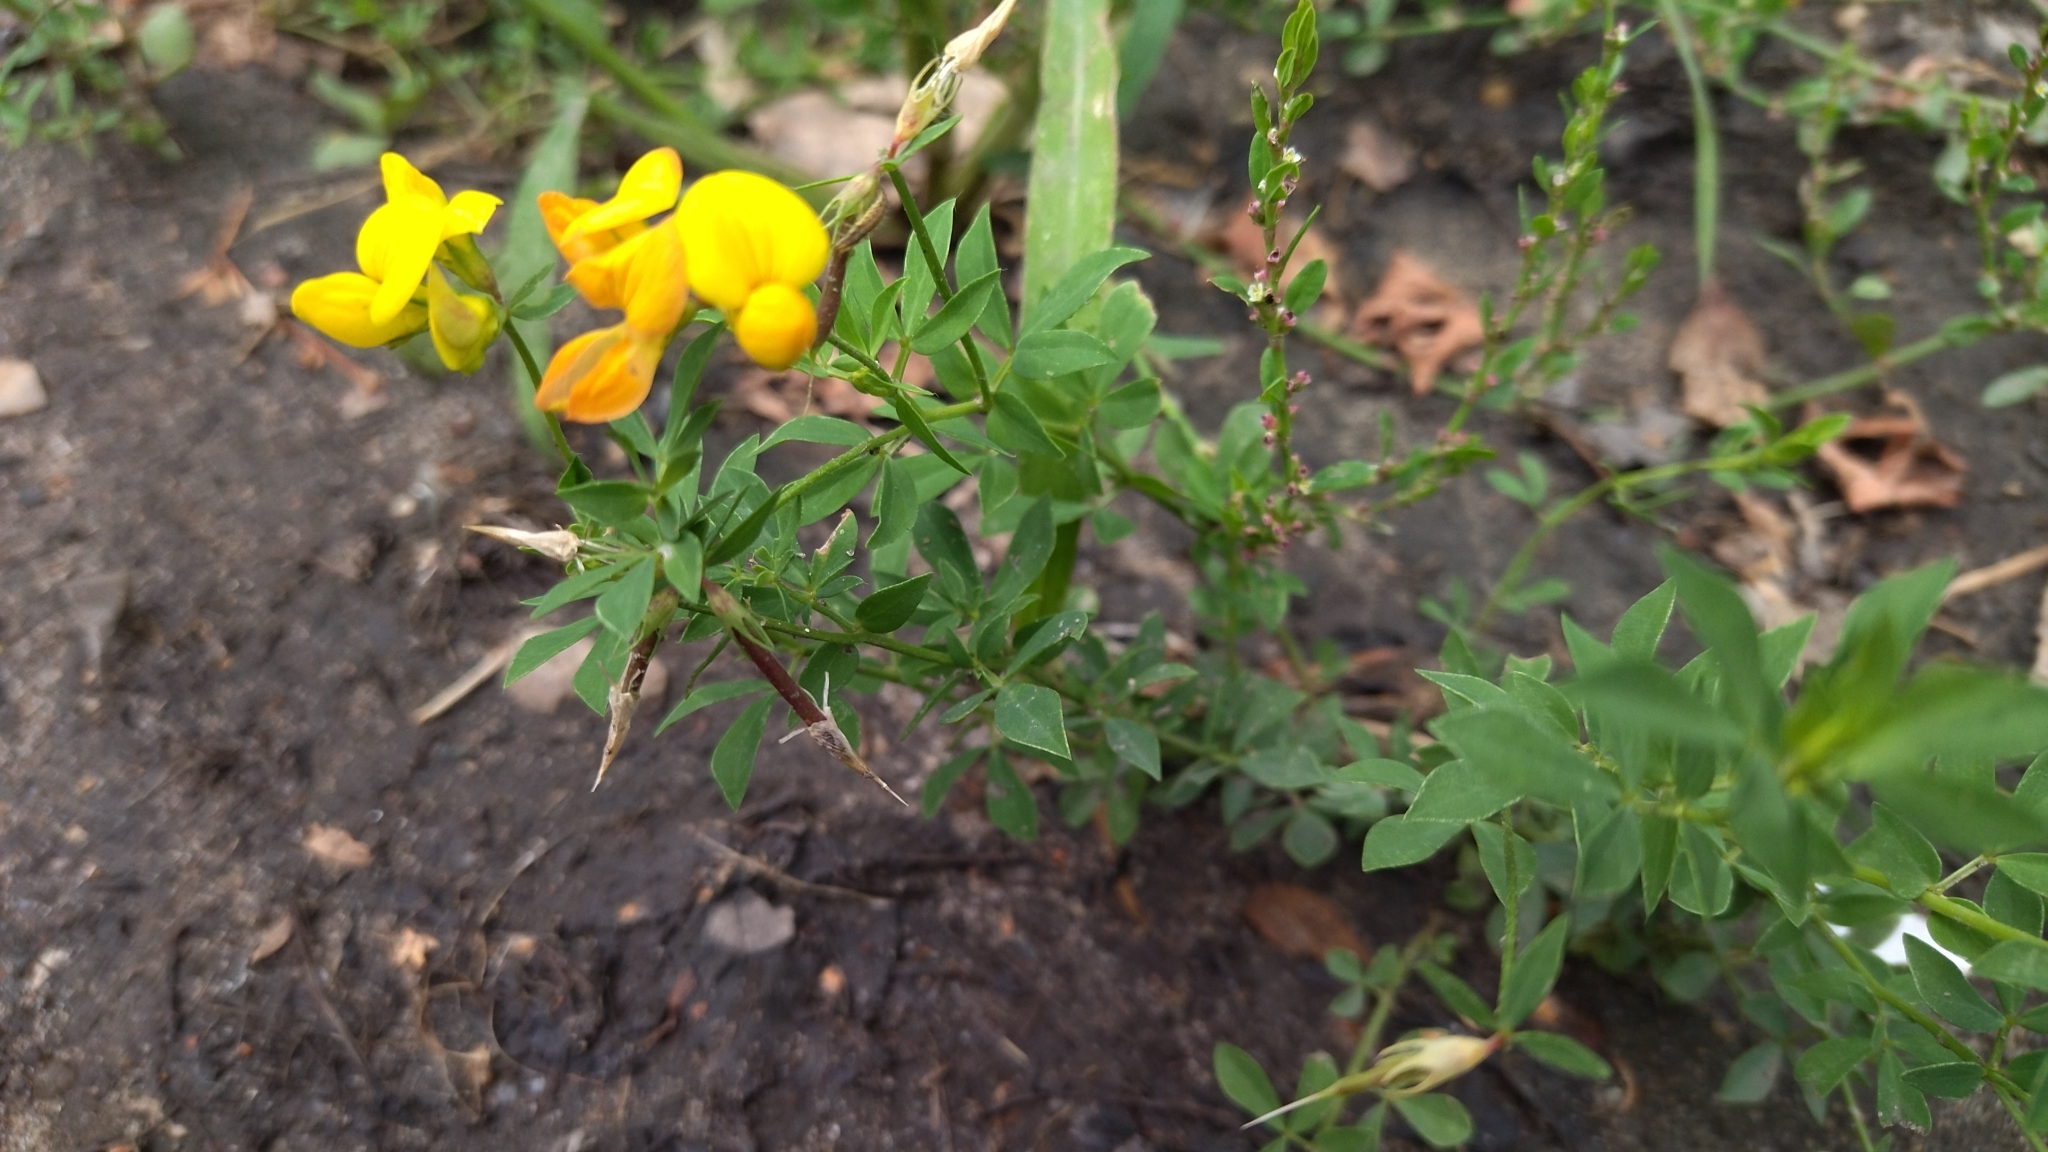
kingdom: Plantae
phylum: Tracheophyta
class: Magnoliopsida
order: Fabales
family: Fabaceae
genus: Lotus
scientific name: Lotus corniculatus
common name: Common bird's-foot-trefoil
